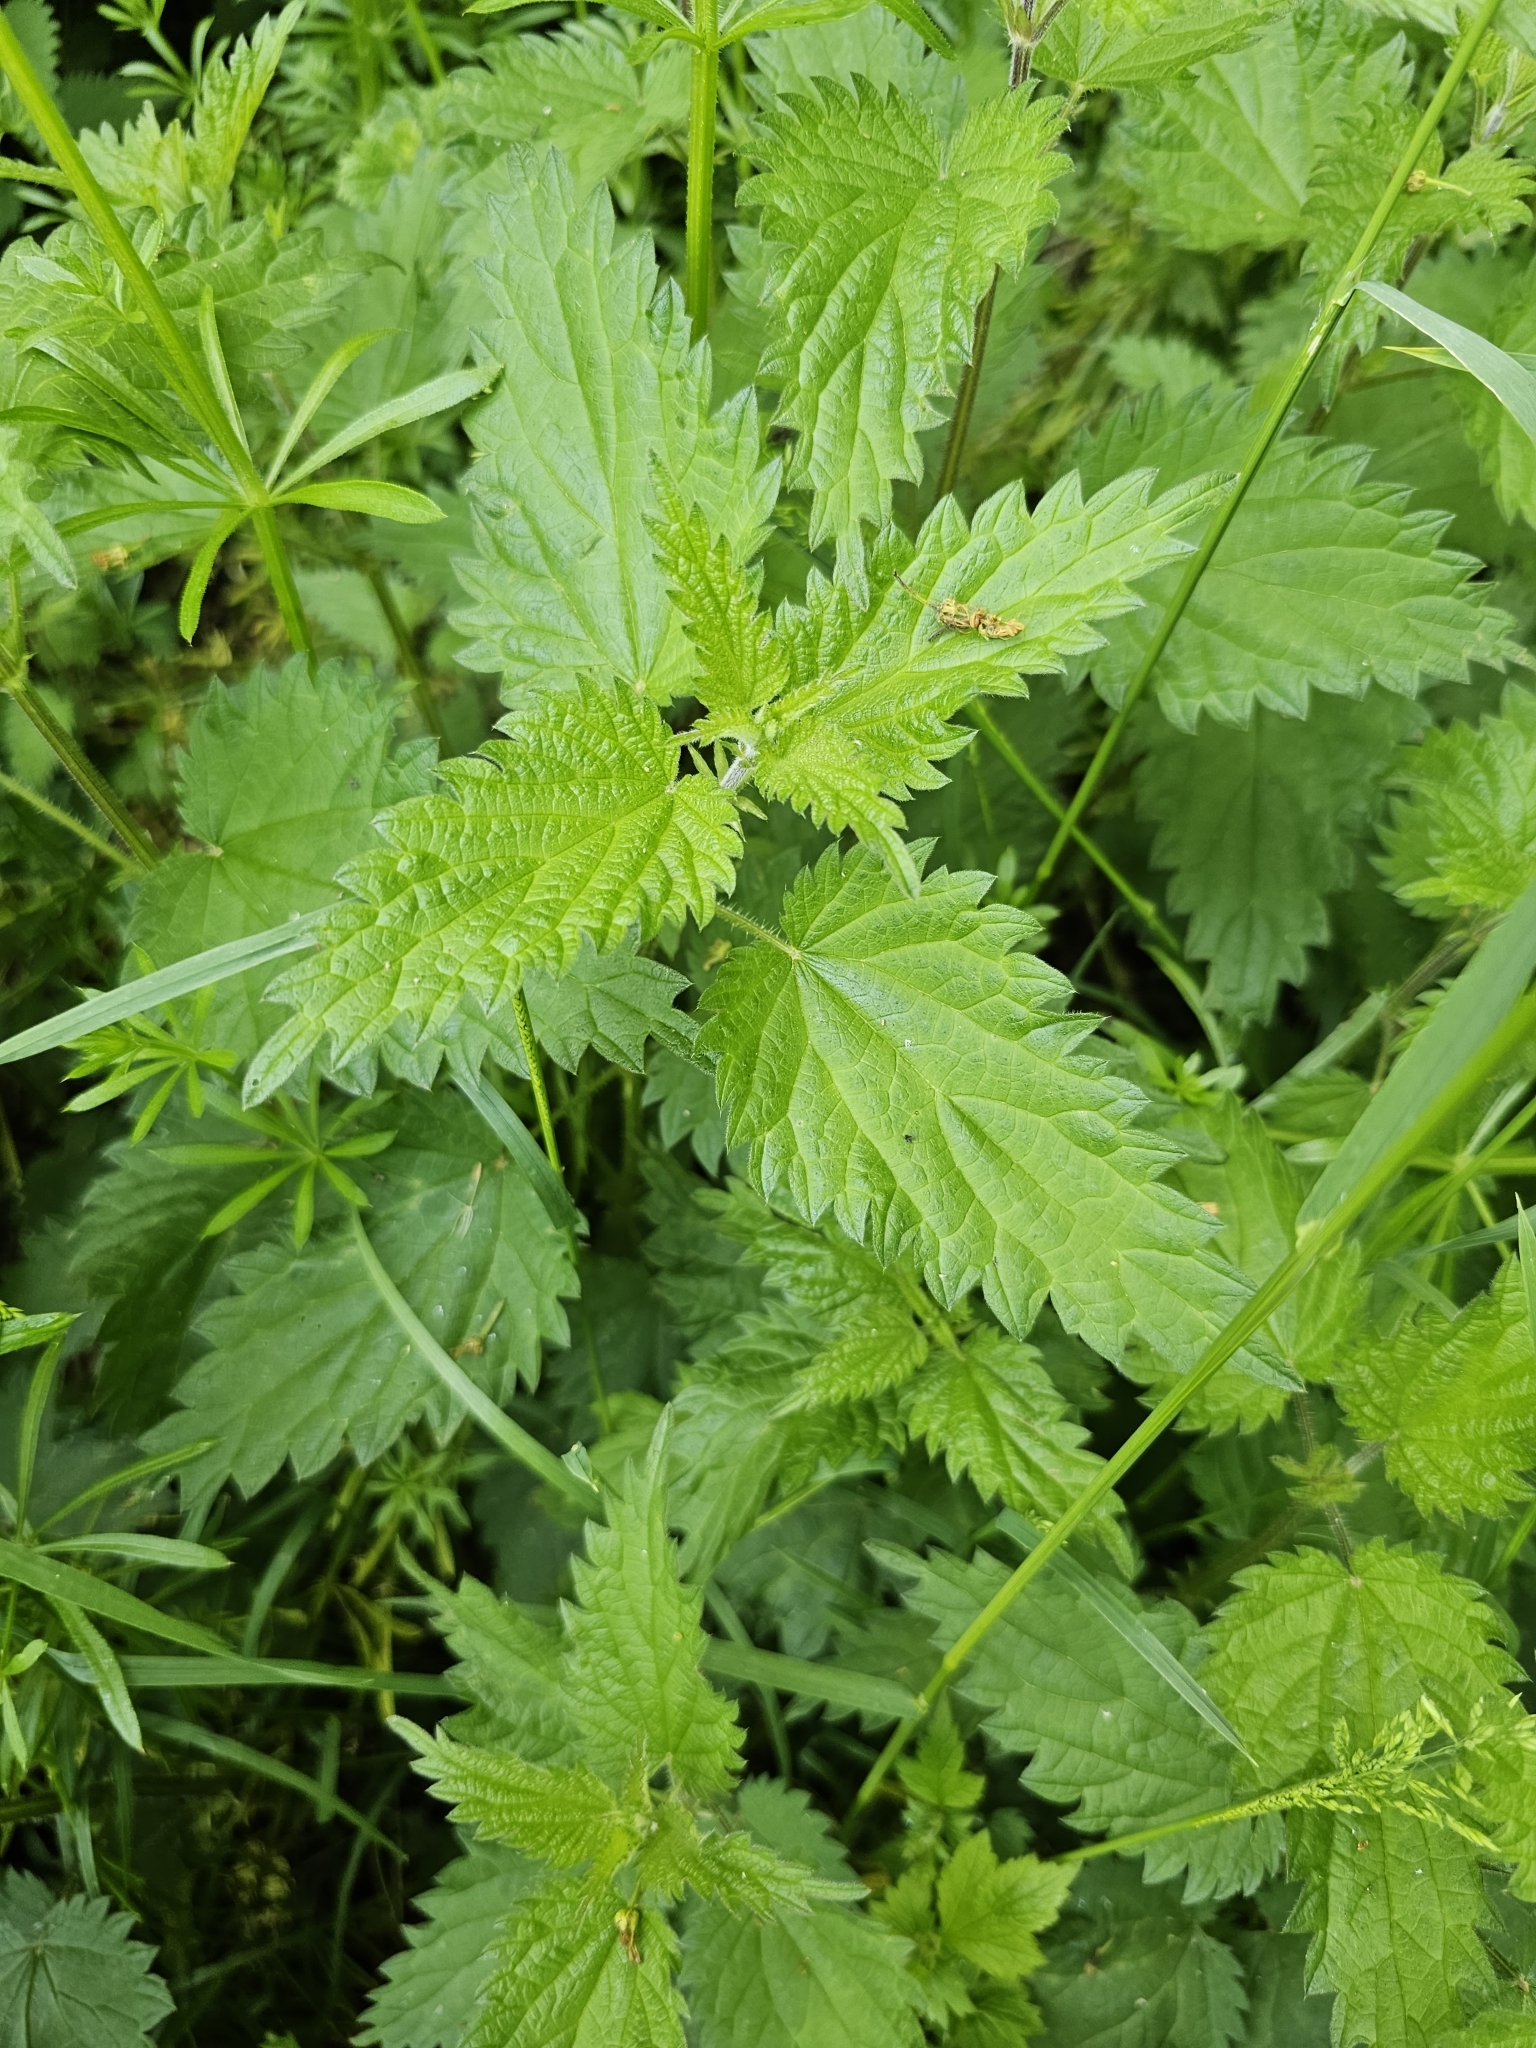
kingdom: Plantae
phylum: Tracheophyta
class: Magnoliopsida
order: Rosales
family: Urticaceae
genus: Urtica
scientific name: Urtica dioica
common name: Common nettle
